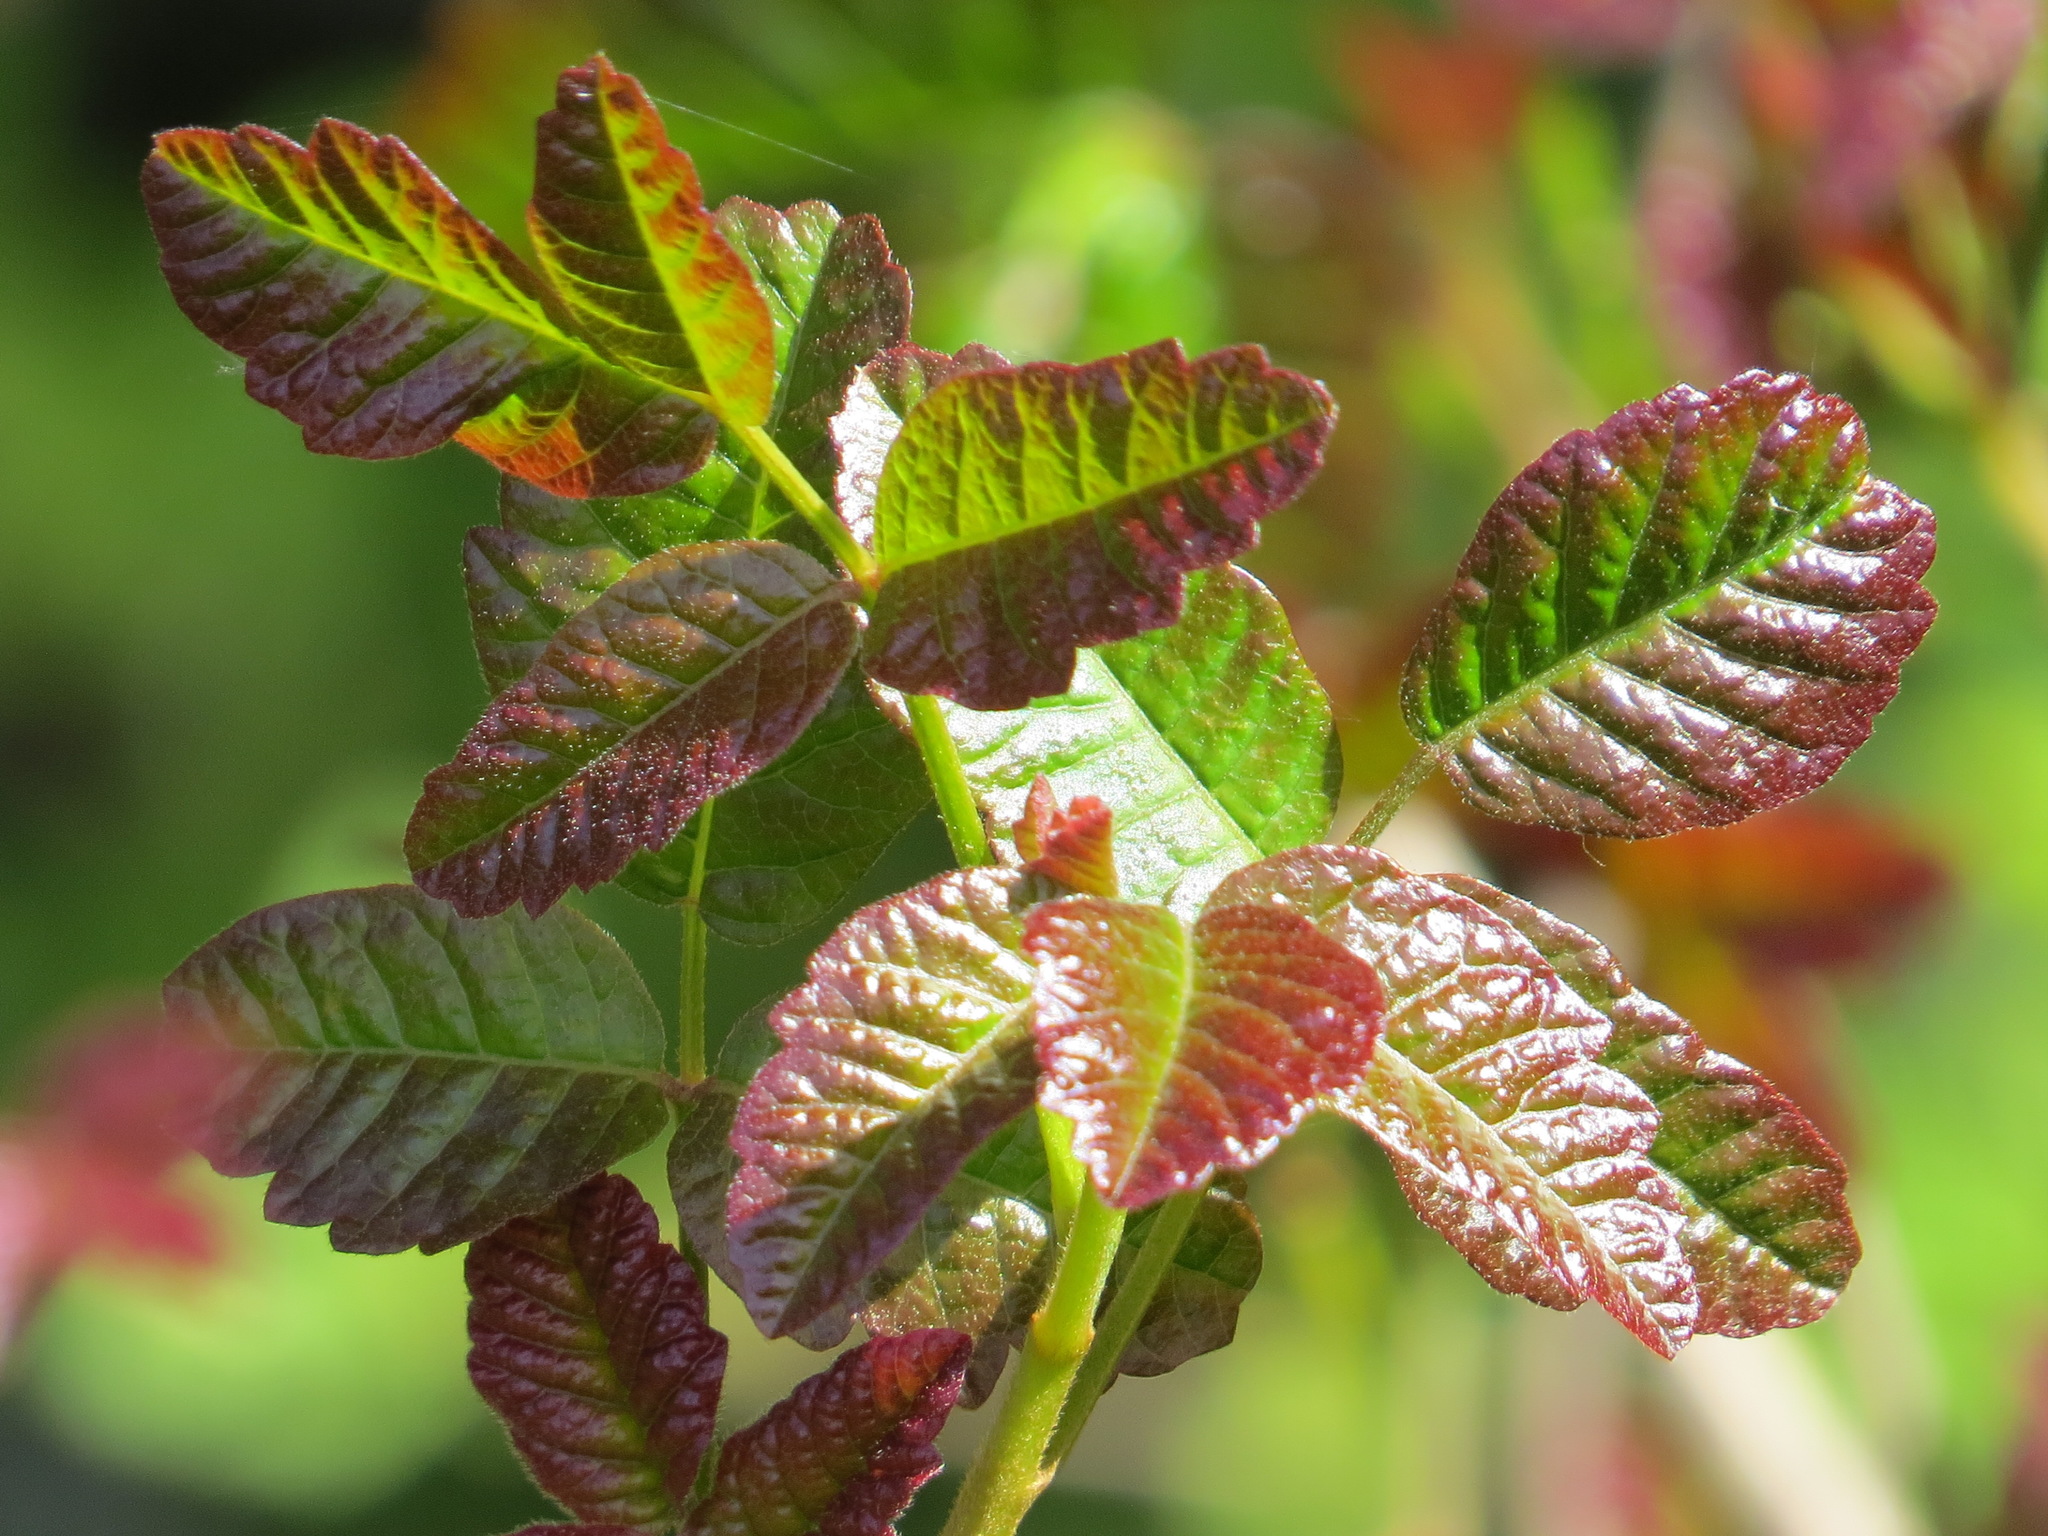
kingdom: Plantae
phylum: Tracheophyta
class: Magnoliopsida
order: Sapindales
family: Anacardiaceae
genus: Toxicodendron
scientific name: Toxicodendron diversilobum
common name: Pacific poison-oak
